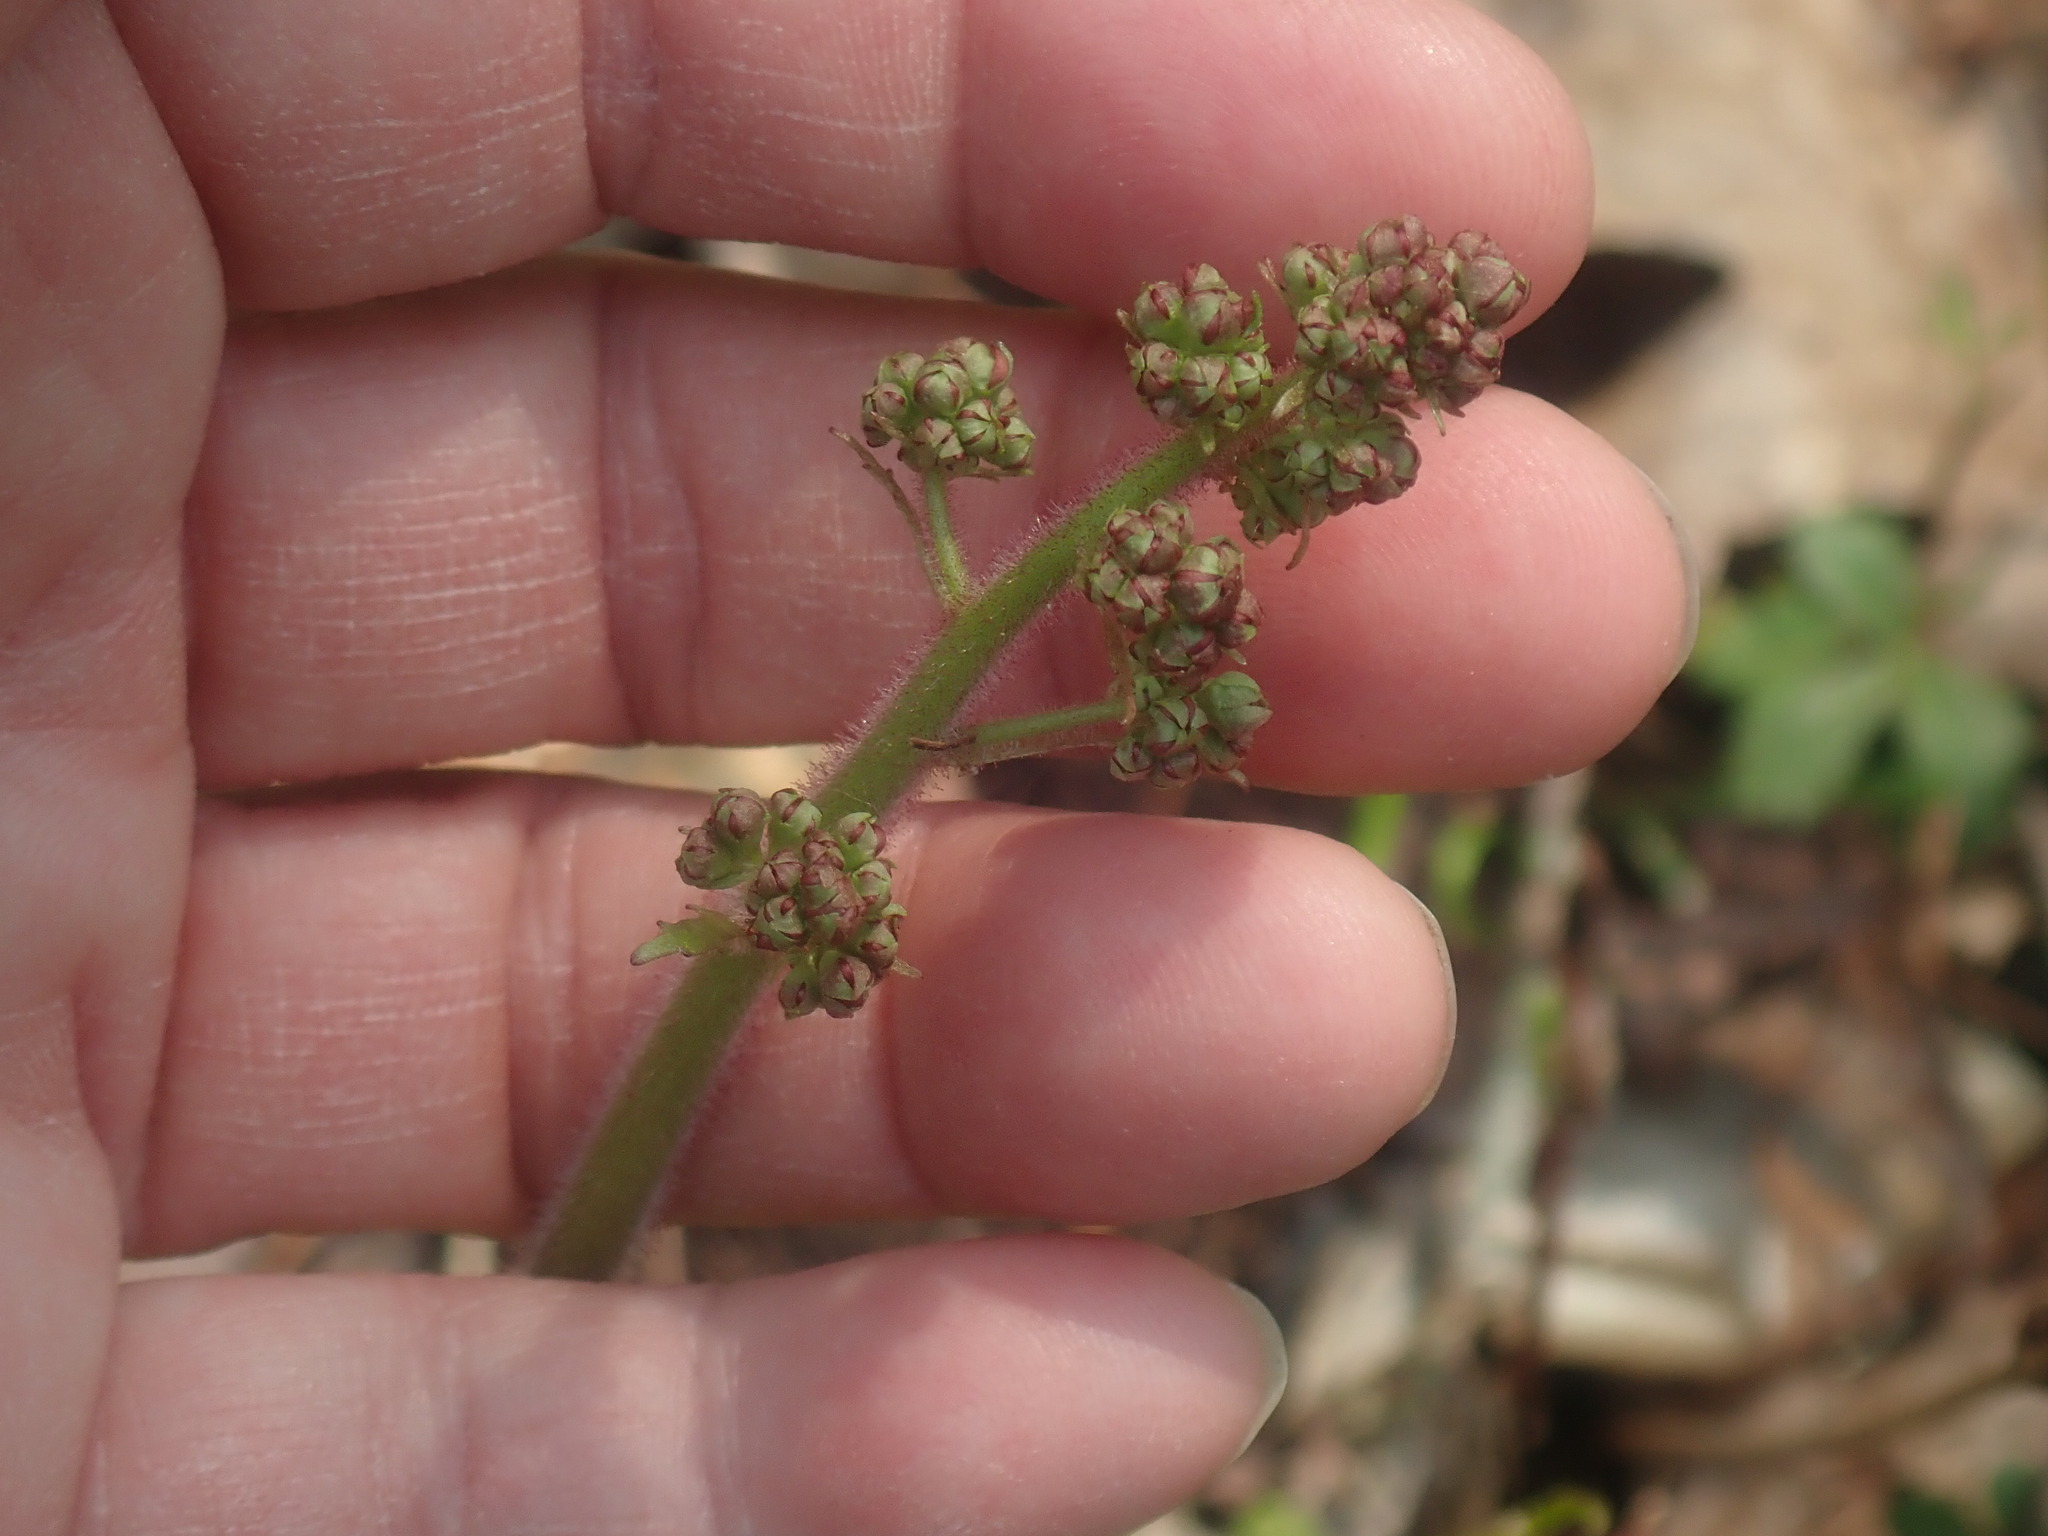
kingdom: Plantae
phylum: Tracheophyta
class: Magnoliopsida
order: Saxifragales
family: Saxifragaceae
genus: Micranthes
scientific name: Micranthes pensylvanica
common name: Marsh saxifrage
